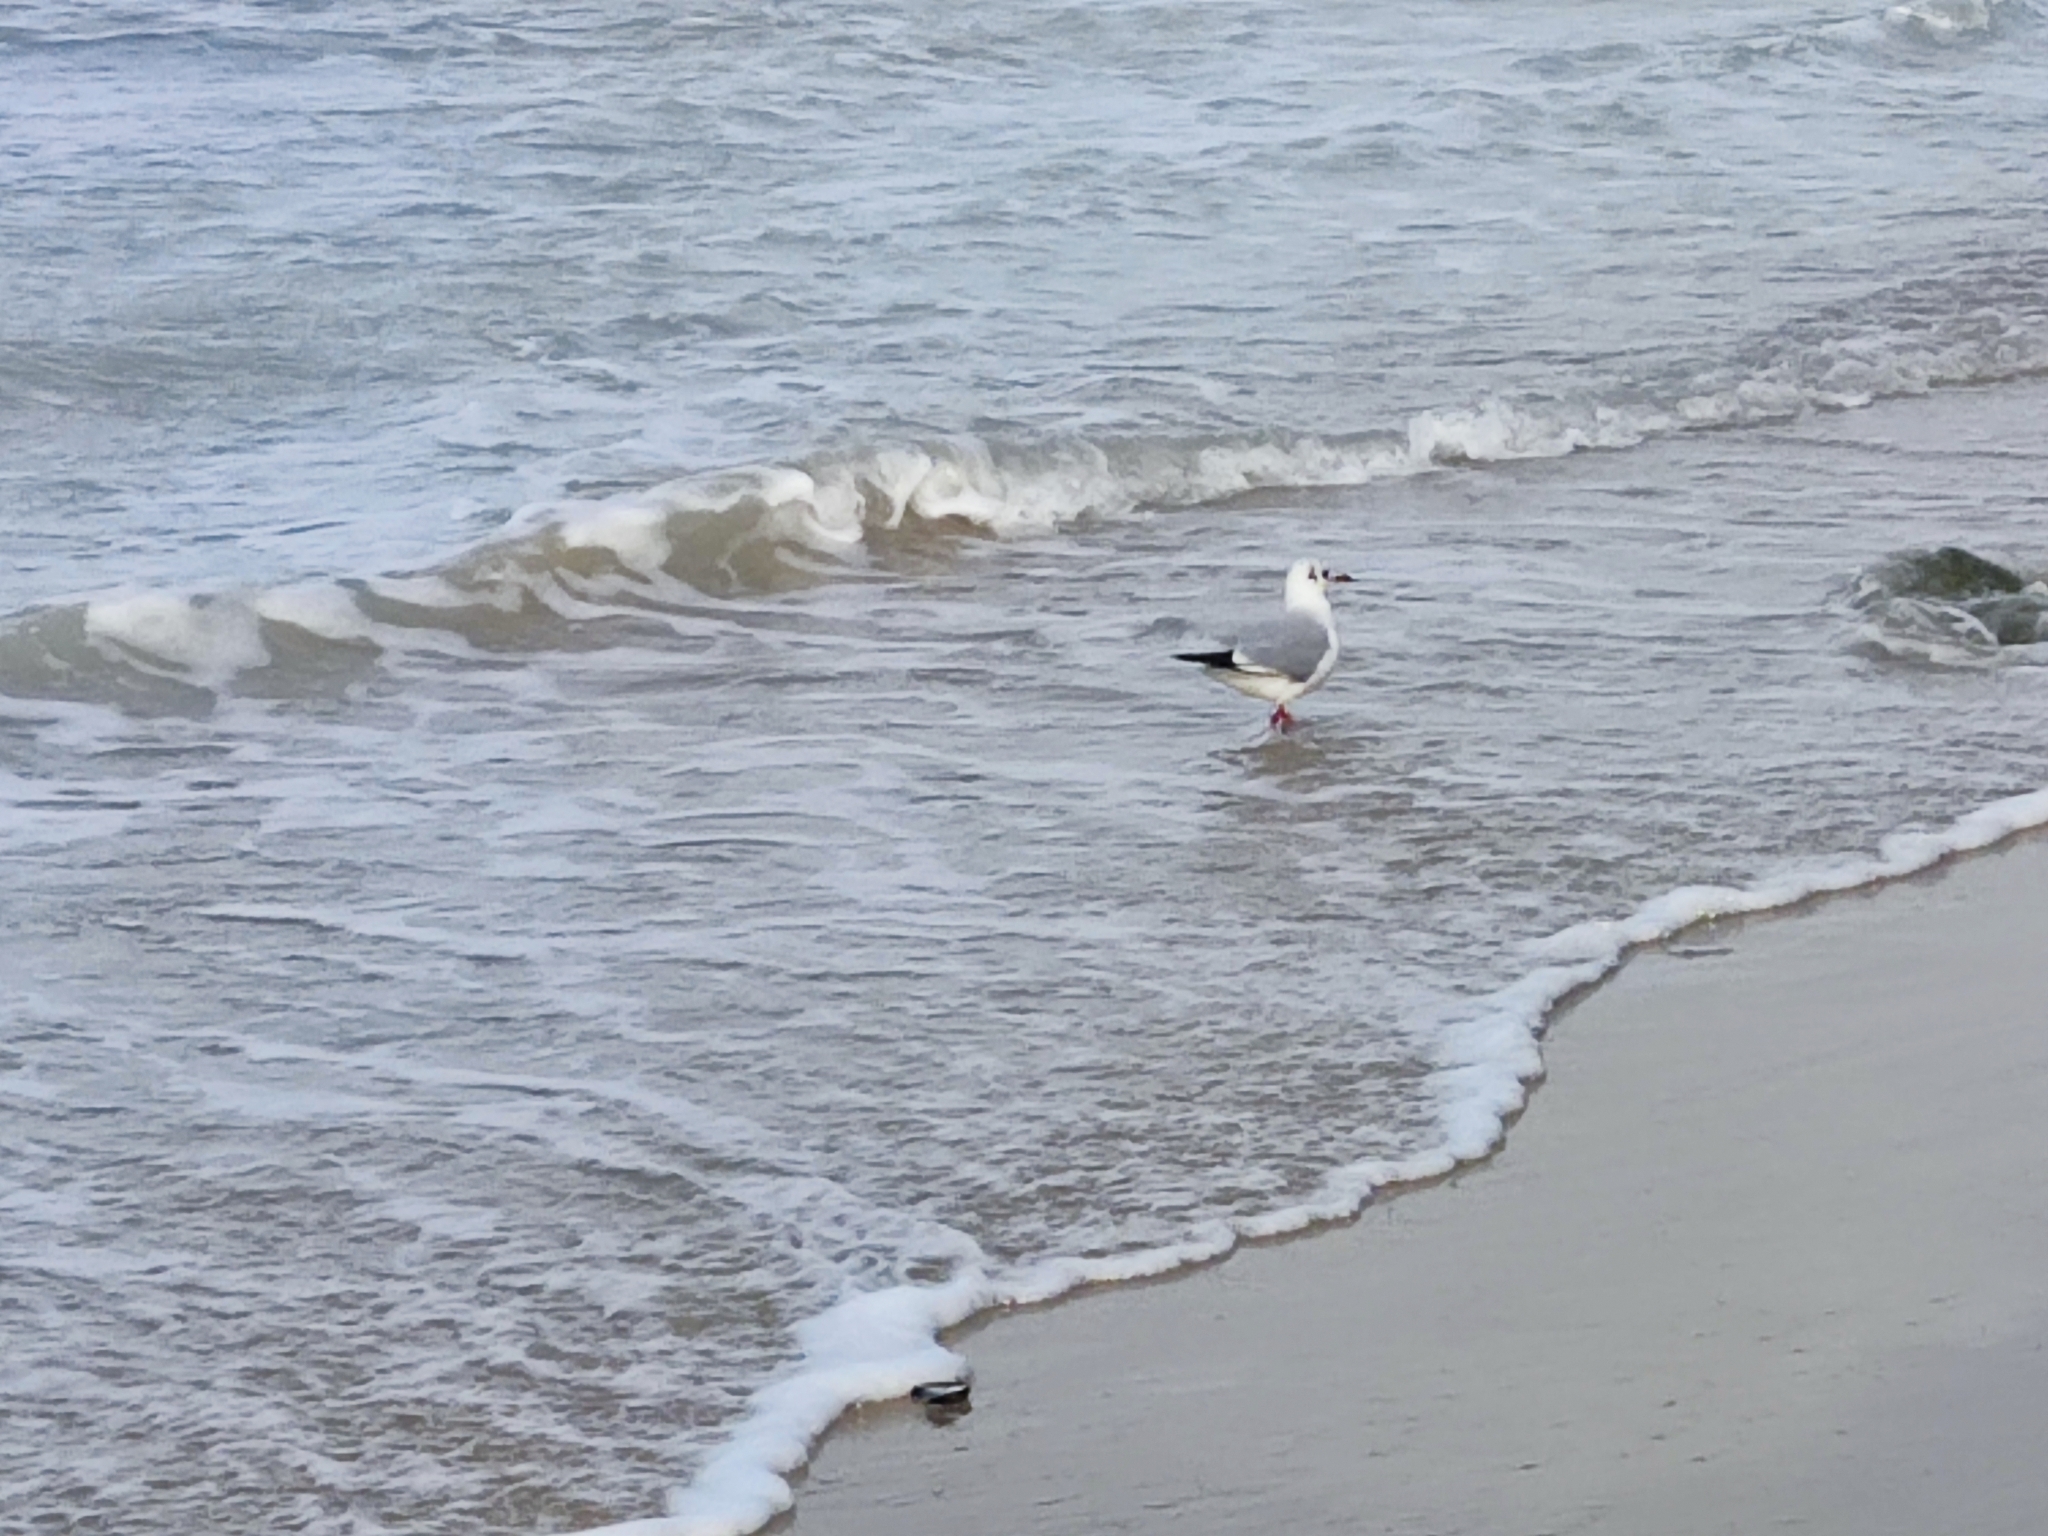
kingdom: Animalia
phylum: Chordata
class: Aves
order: Charadriiformes
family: Laridae
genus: Chroicocephalus
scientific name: Chroicocephalus ridibundus
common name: Black-headed gull
